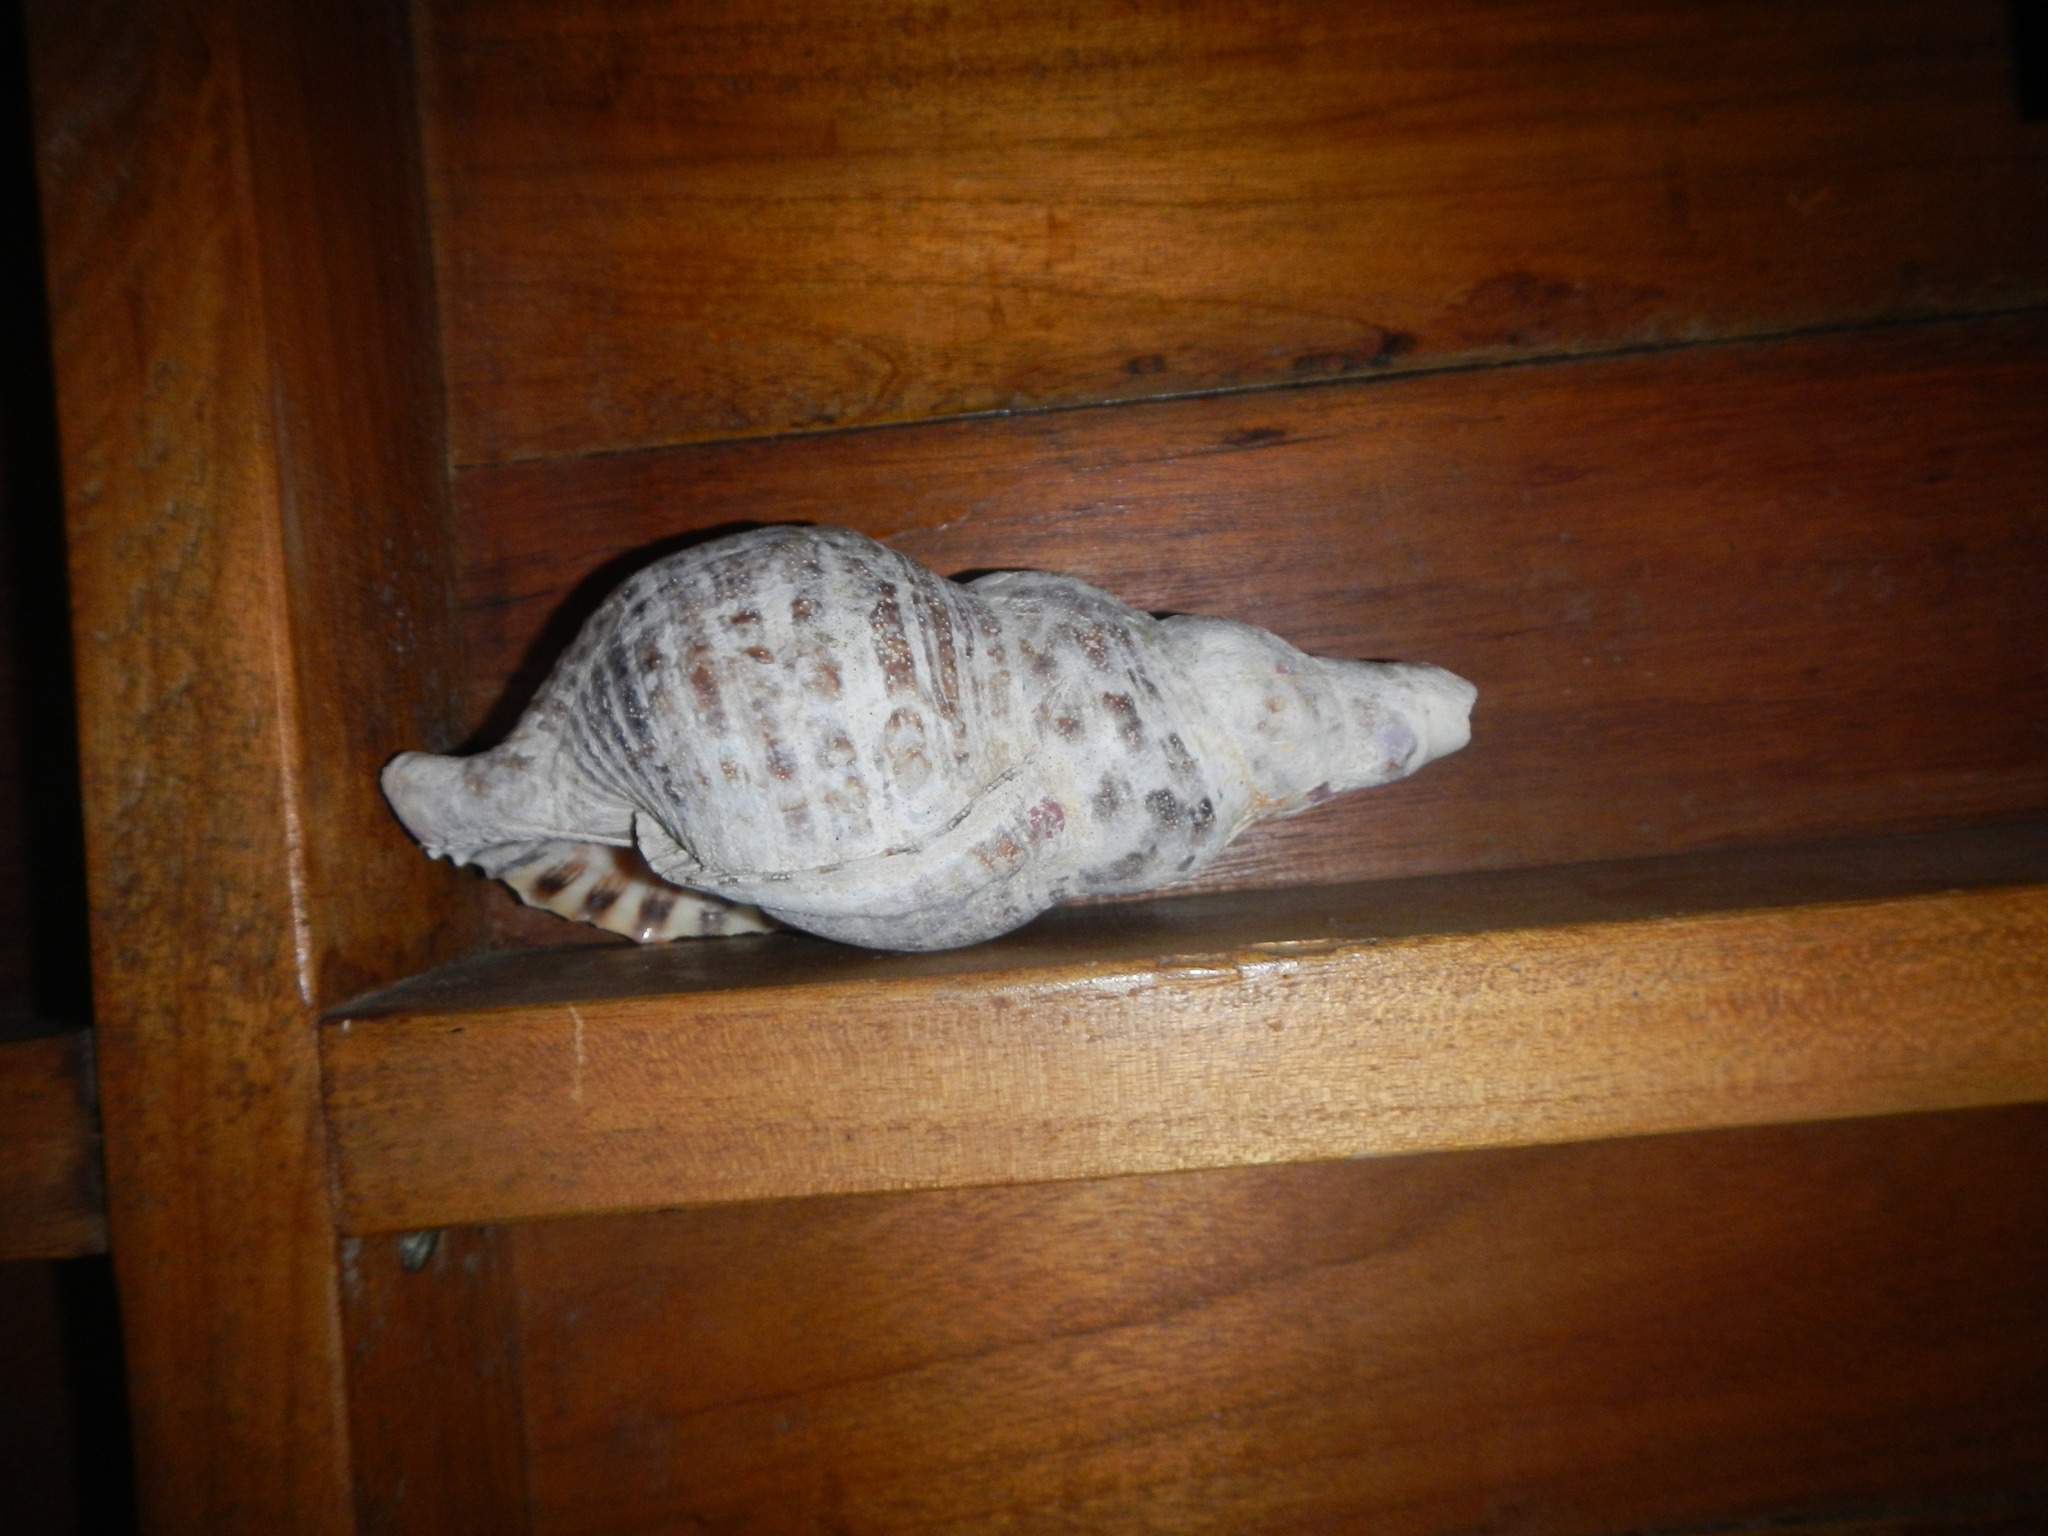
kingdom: Animalia
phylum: Mollusca
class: Gastropoda
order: Littorinimorpha
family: Charoniidae
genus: Charonia
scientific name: Charonia variegata
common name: Atlantic triton
